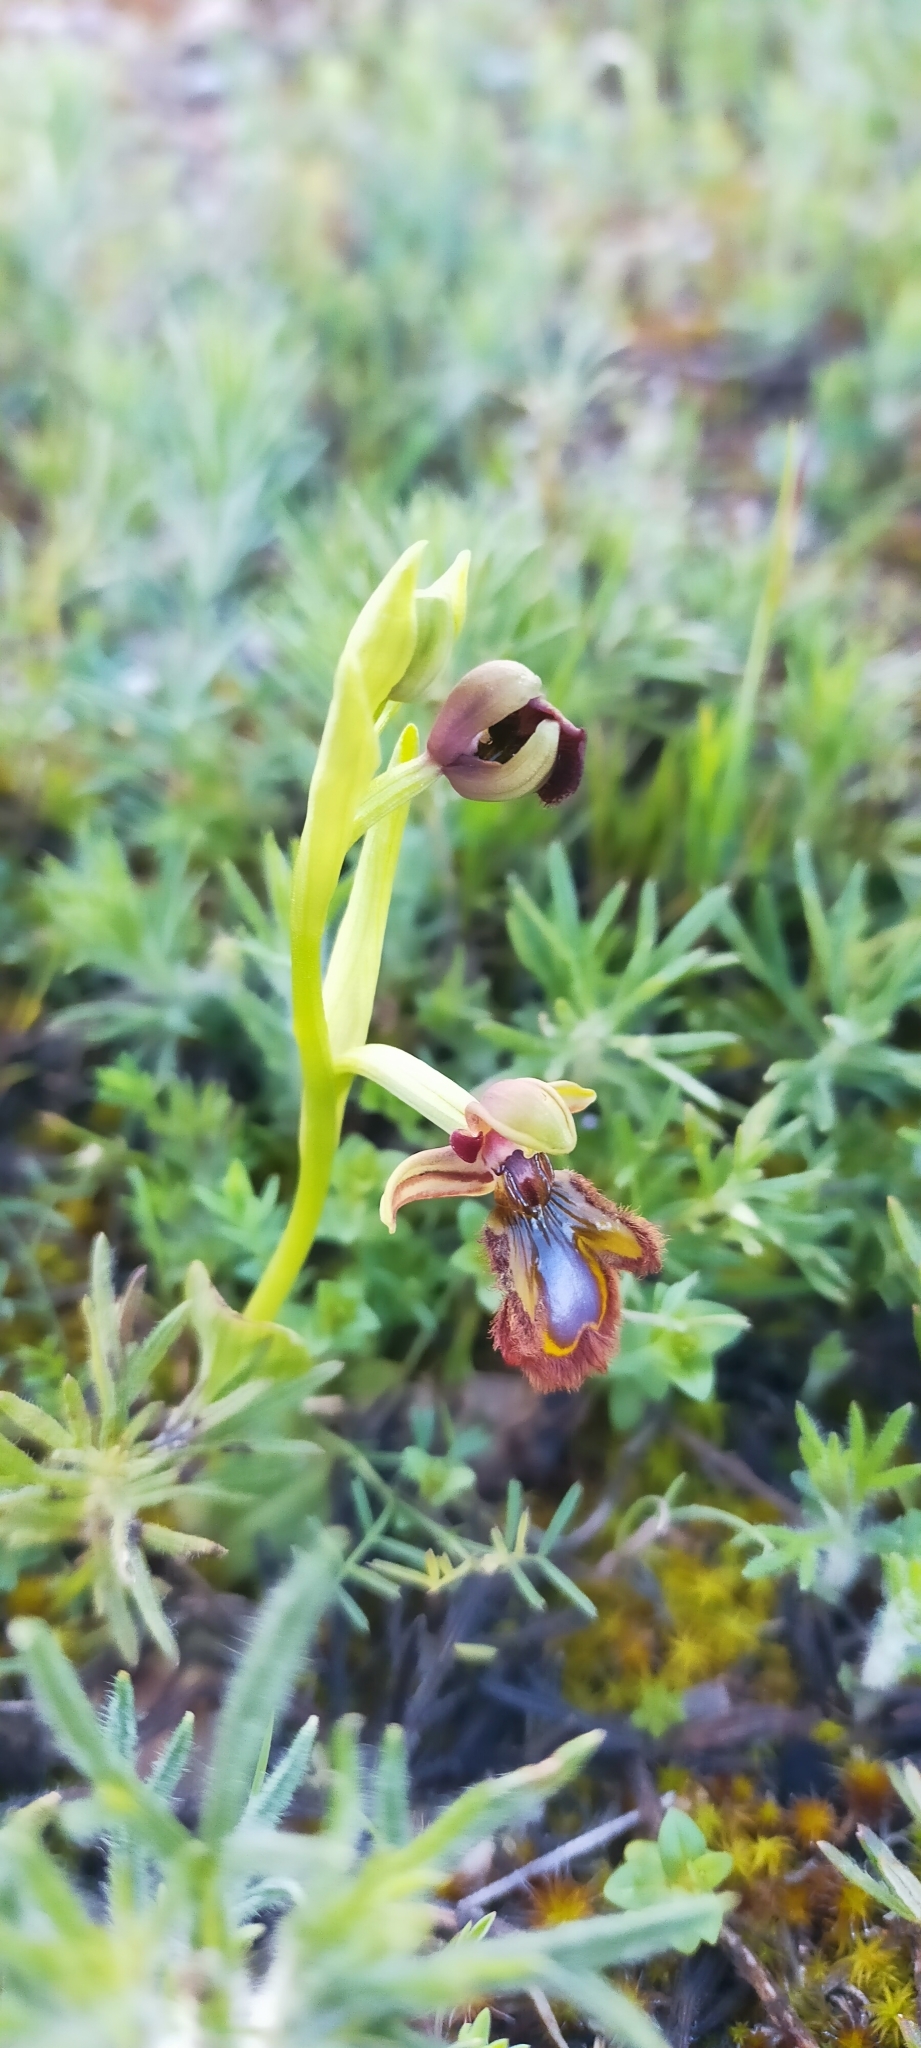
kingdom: Plantae
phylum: Tracheophyta
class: Liliopsida
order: Asparagales
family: Orchidaceae
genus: Ophrys
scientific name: Ophrys speculum
